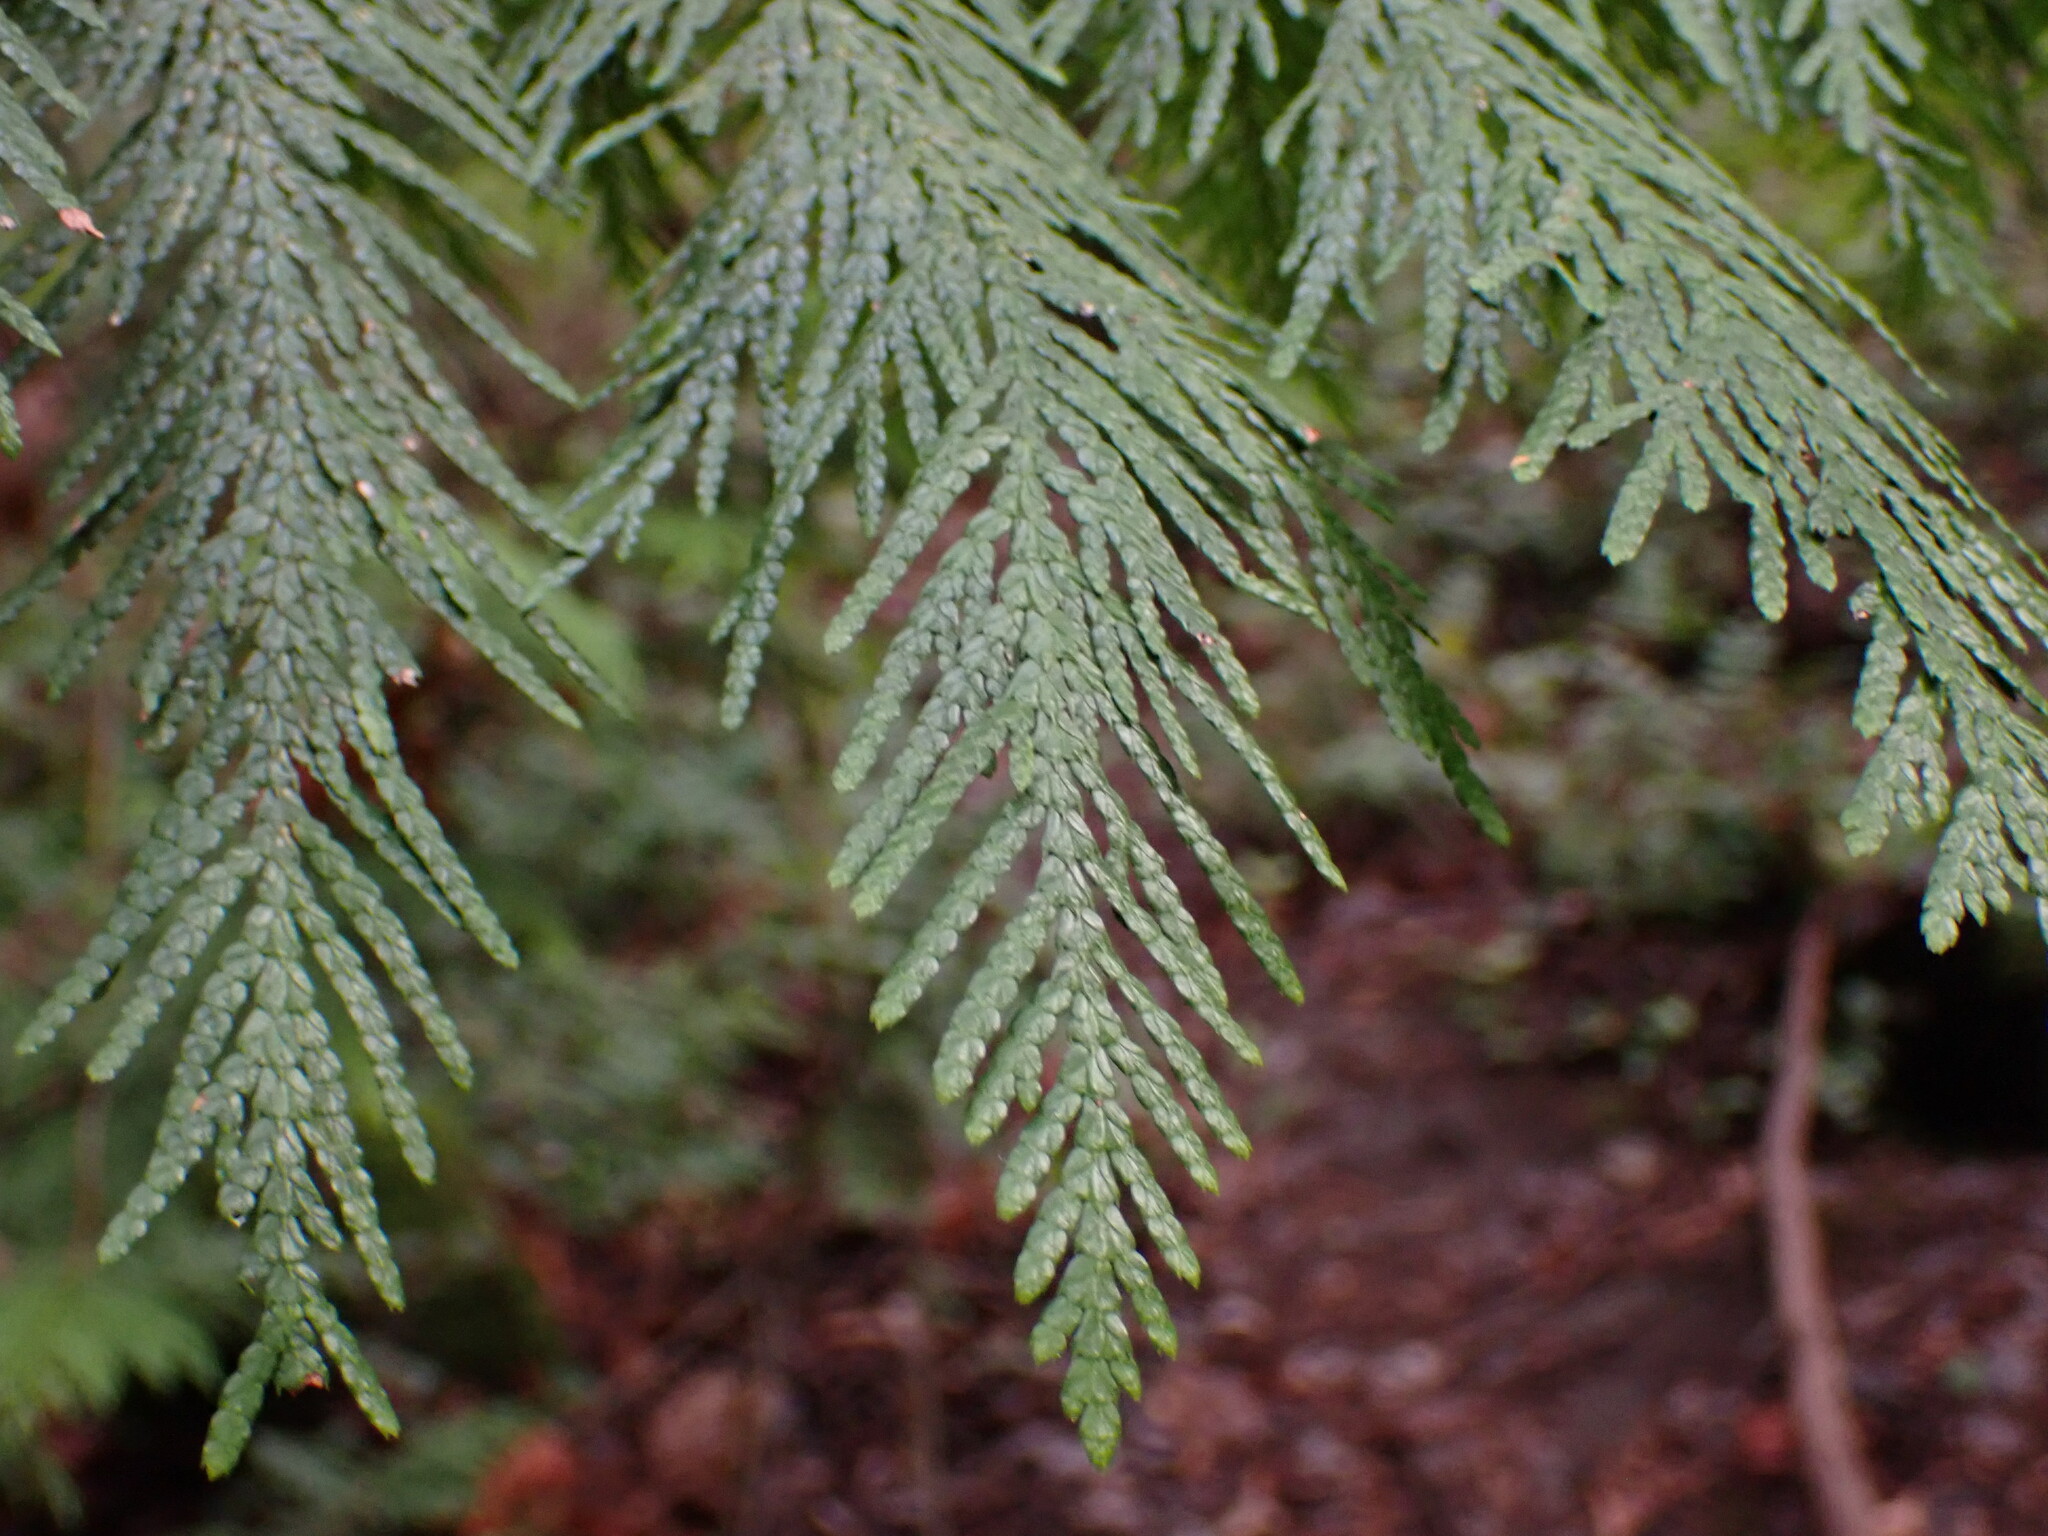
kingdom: Plantae
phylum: Tracheophyta
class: Pinopsida
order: Pinales
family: Cupressaceae
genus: Thuja
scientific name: Thuja plicata
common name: Western red-cedar
